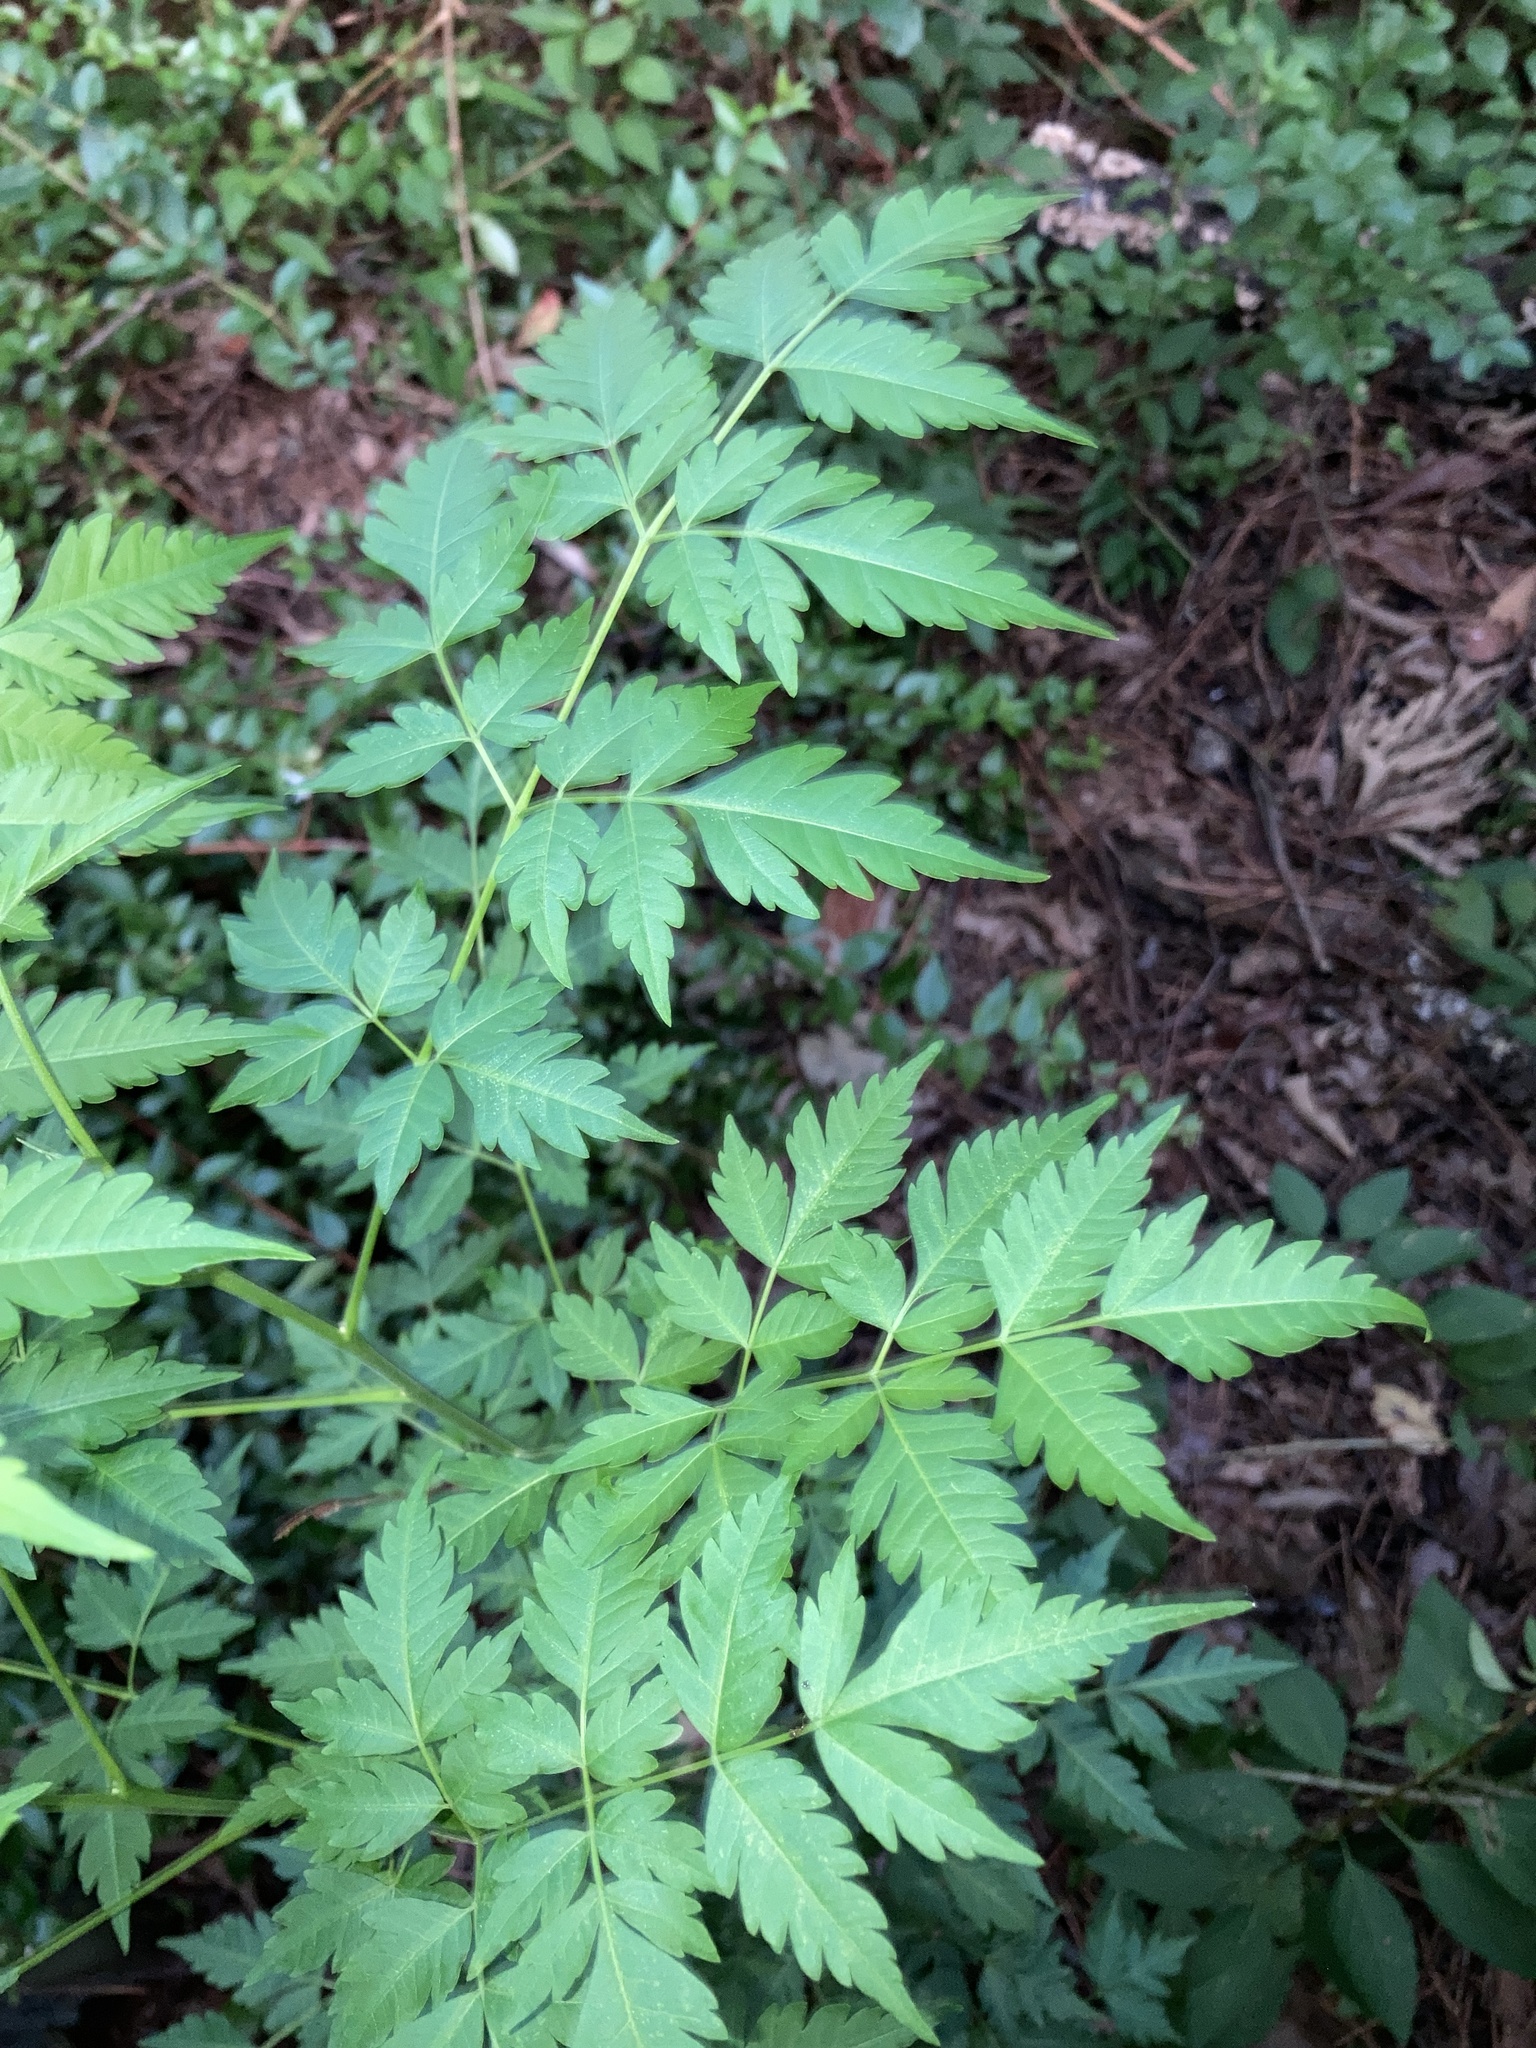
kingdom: Plantae
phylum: Tracheophyta
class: Magnoliopsida
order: Sapindales
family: Meliaceae
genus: Melia
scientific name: Melia azedarach
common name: Chinaberrytree
